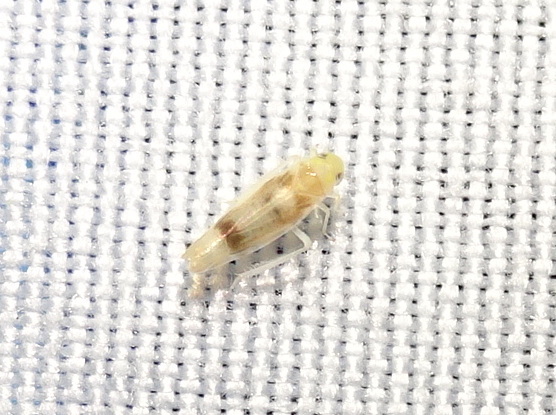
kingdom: Animalia
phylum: Arthropoda
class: Insecta
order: Hemiptera
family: Cicadellidae
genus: Ossiannilssonola
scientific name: Ossiannilssonola appendiculata
